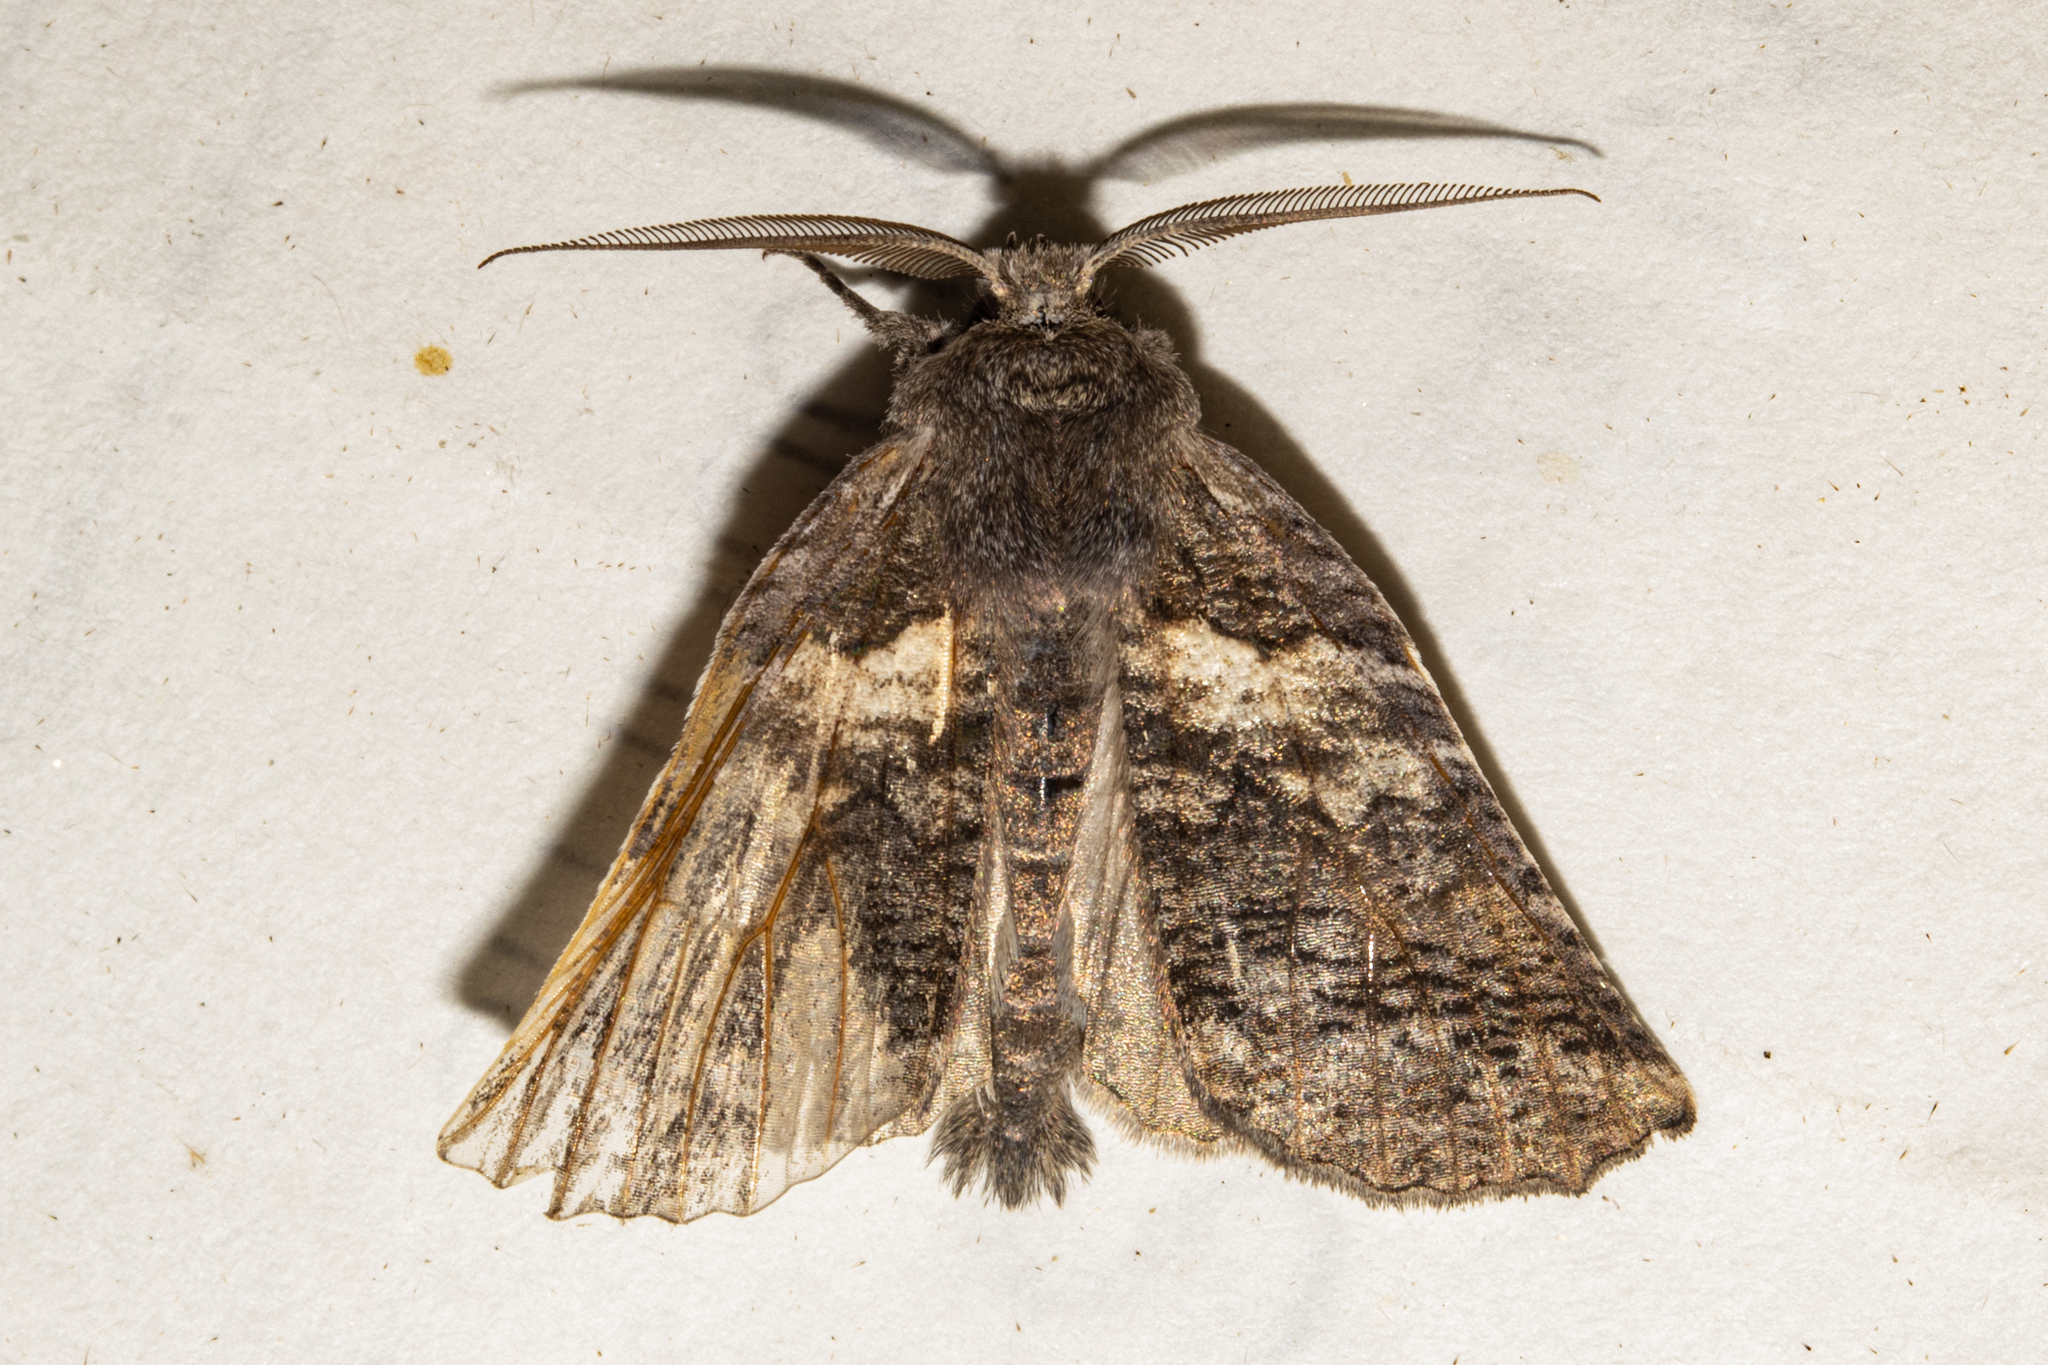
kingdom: Animalia
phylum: Arthropoda
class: Insecta
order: Lepidoptera
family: Geometridae
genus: Declana
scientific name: Declana
